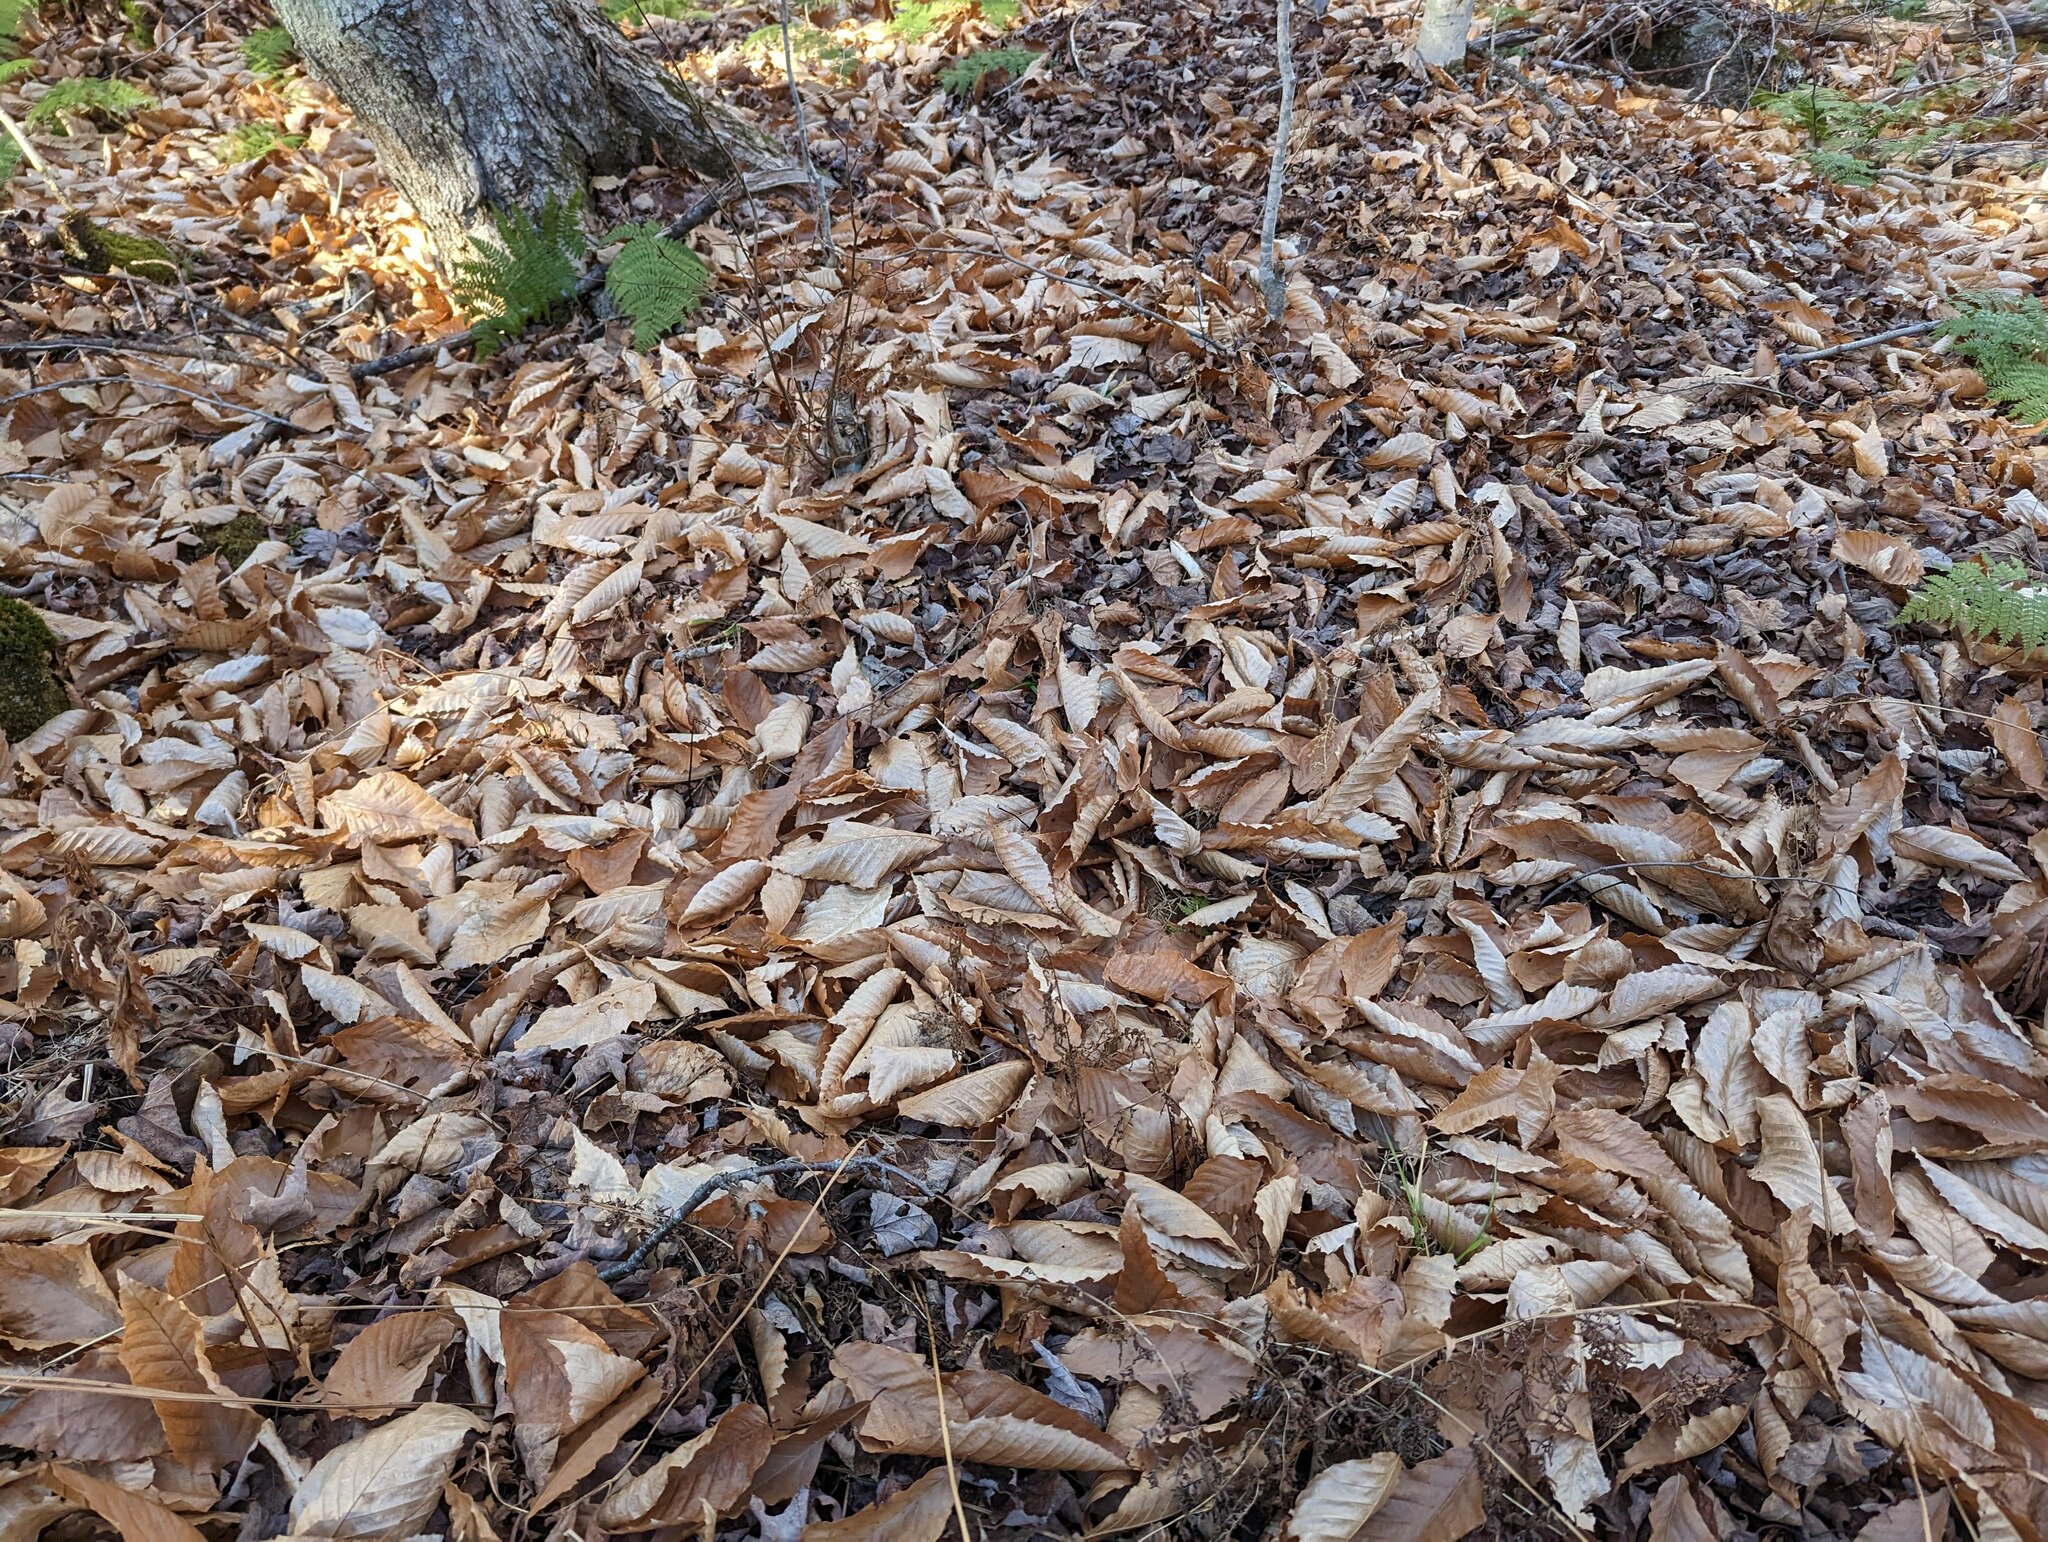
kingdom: Plantae
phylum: Tracheophyta
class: Magnoliopsida
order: Fagales
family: Fagaceae
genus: Fagus
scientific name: Fagus grandifolia
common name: American beech
